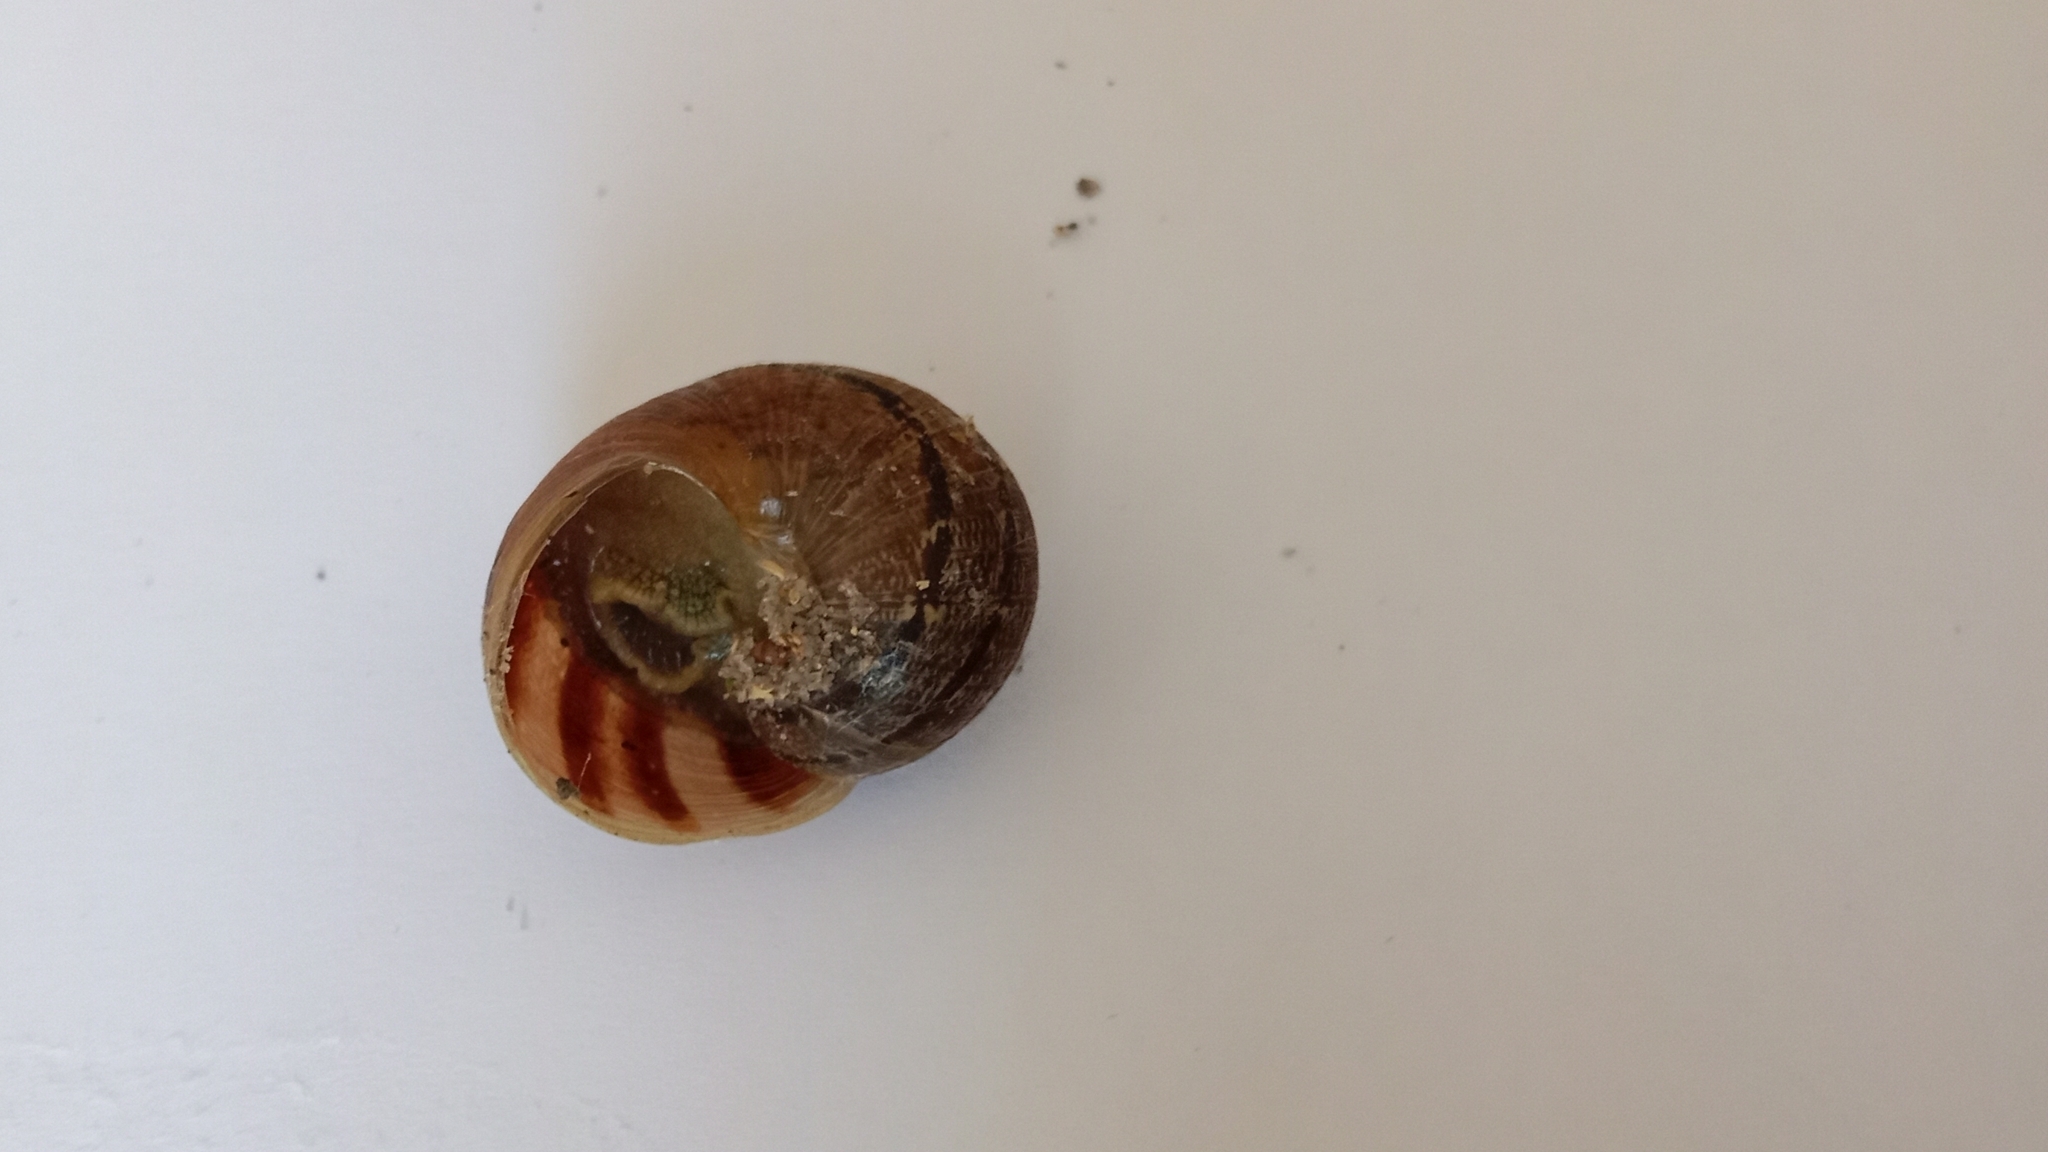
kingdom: Animalia
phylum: Mollusca
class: Gastropoda
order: Stylommatophora
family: Helicidae
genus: Cornu
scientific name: Cornu aspersum
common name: Brown garden snail
